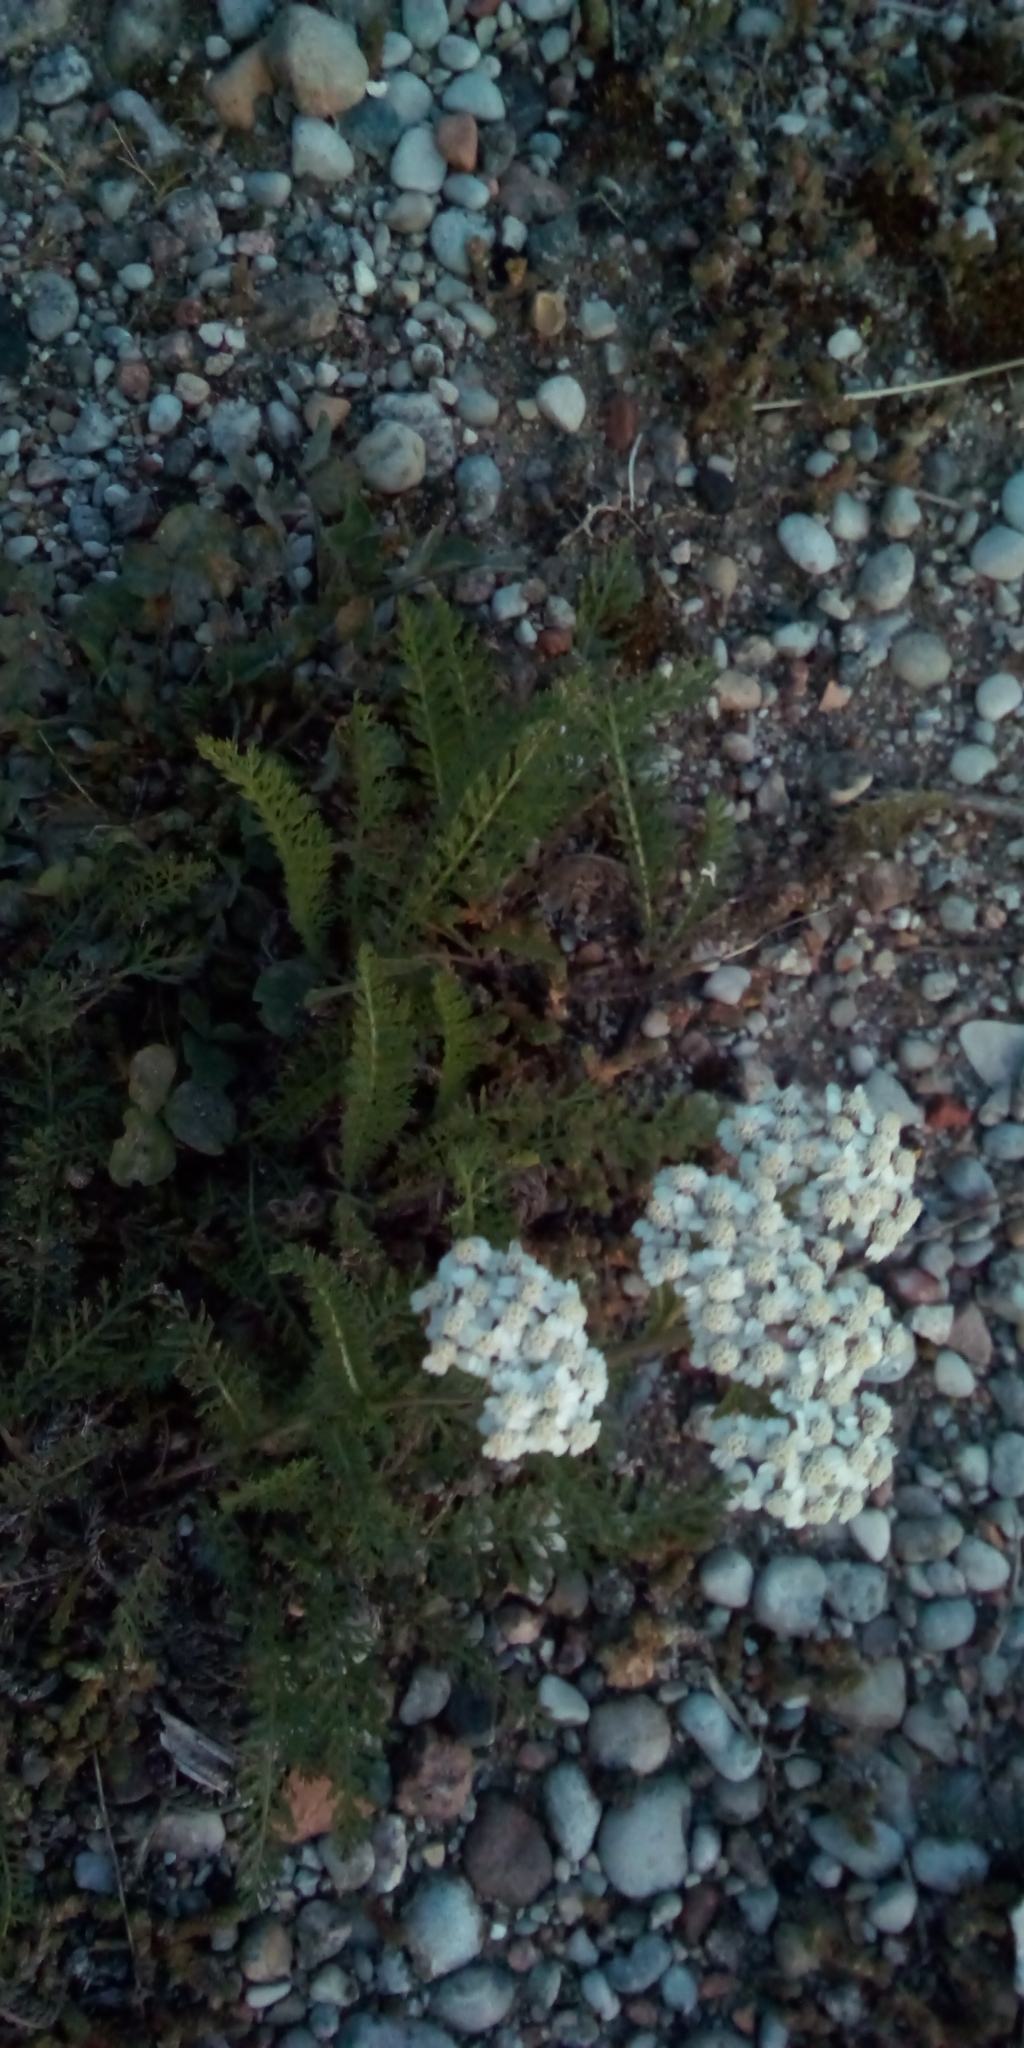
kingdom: Plantae
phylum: Tracheophyta
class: Magnoliopsida
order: Asterales
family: Asteraceae
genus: Achillea
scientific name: Achillea millefolium
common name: Yarrow
